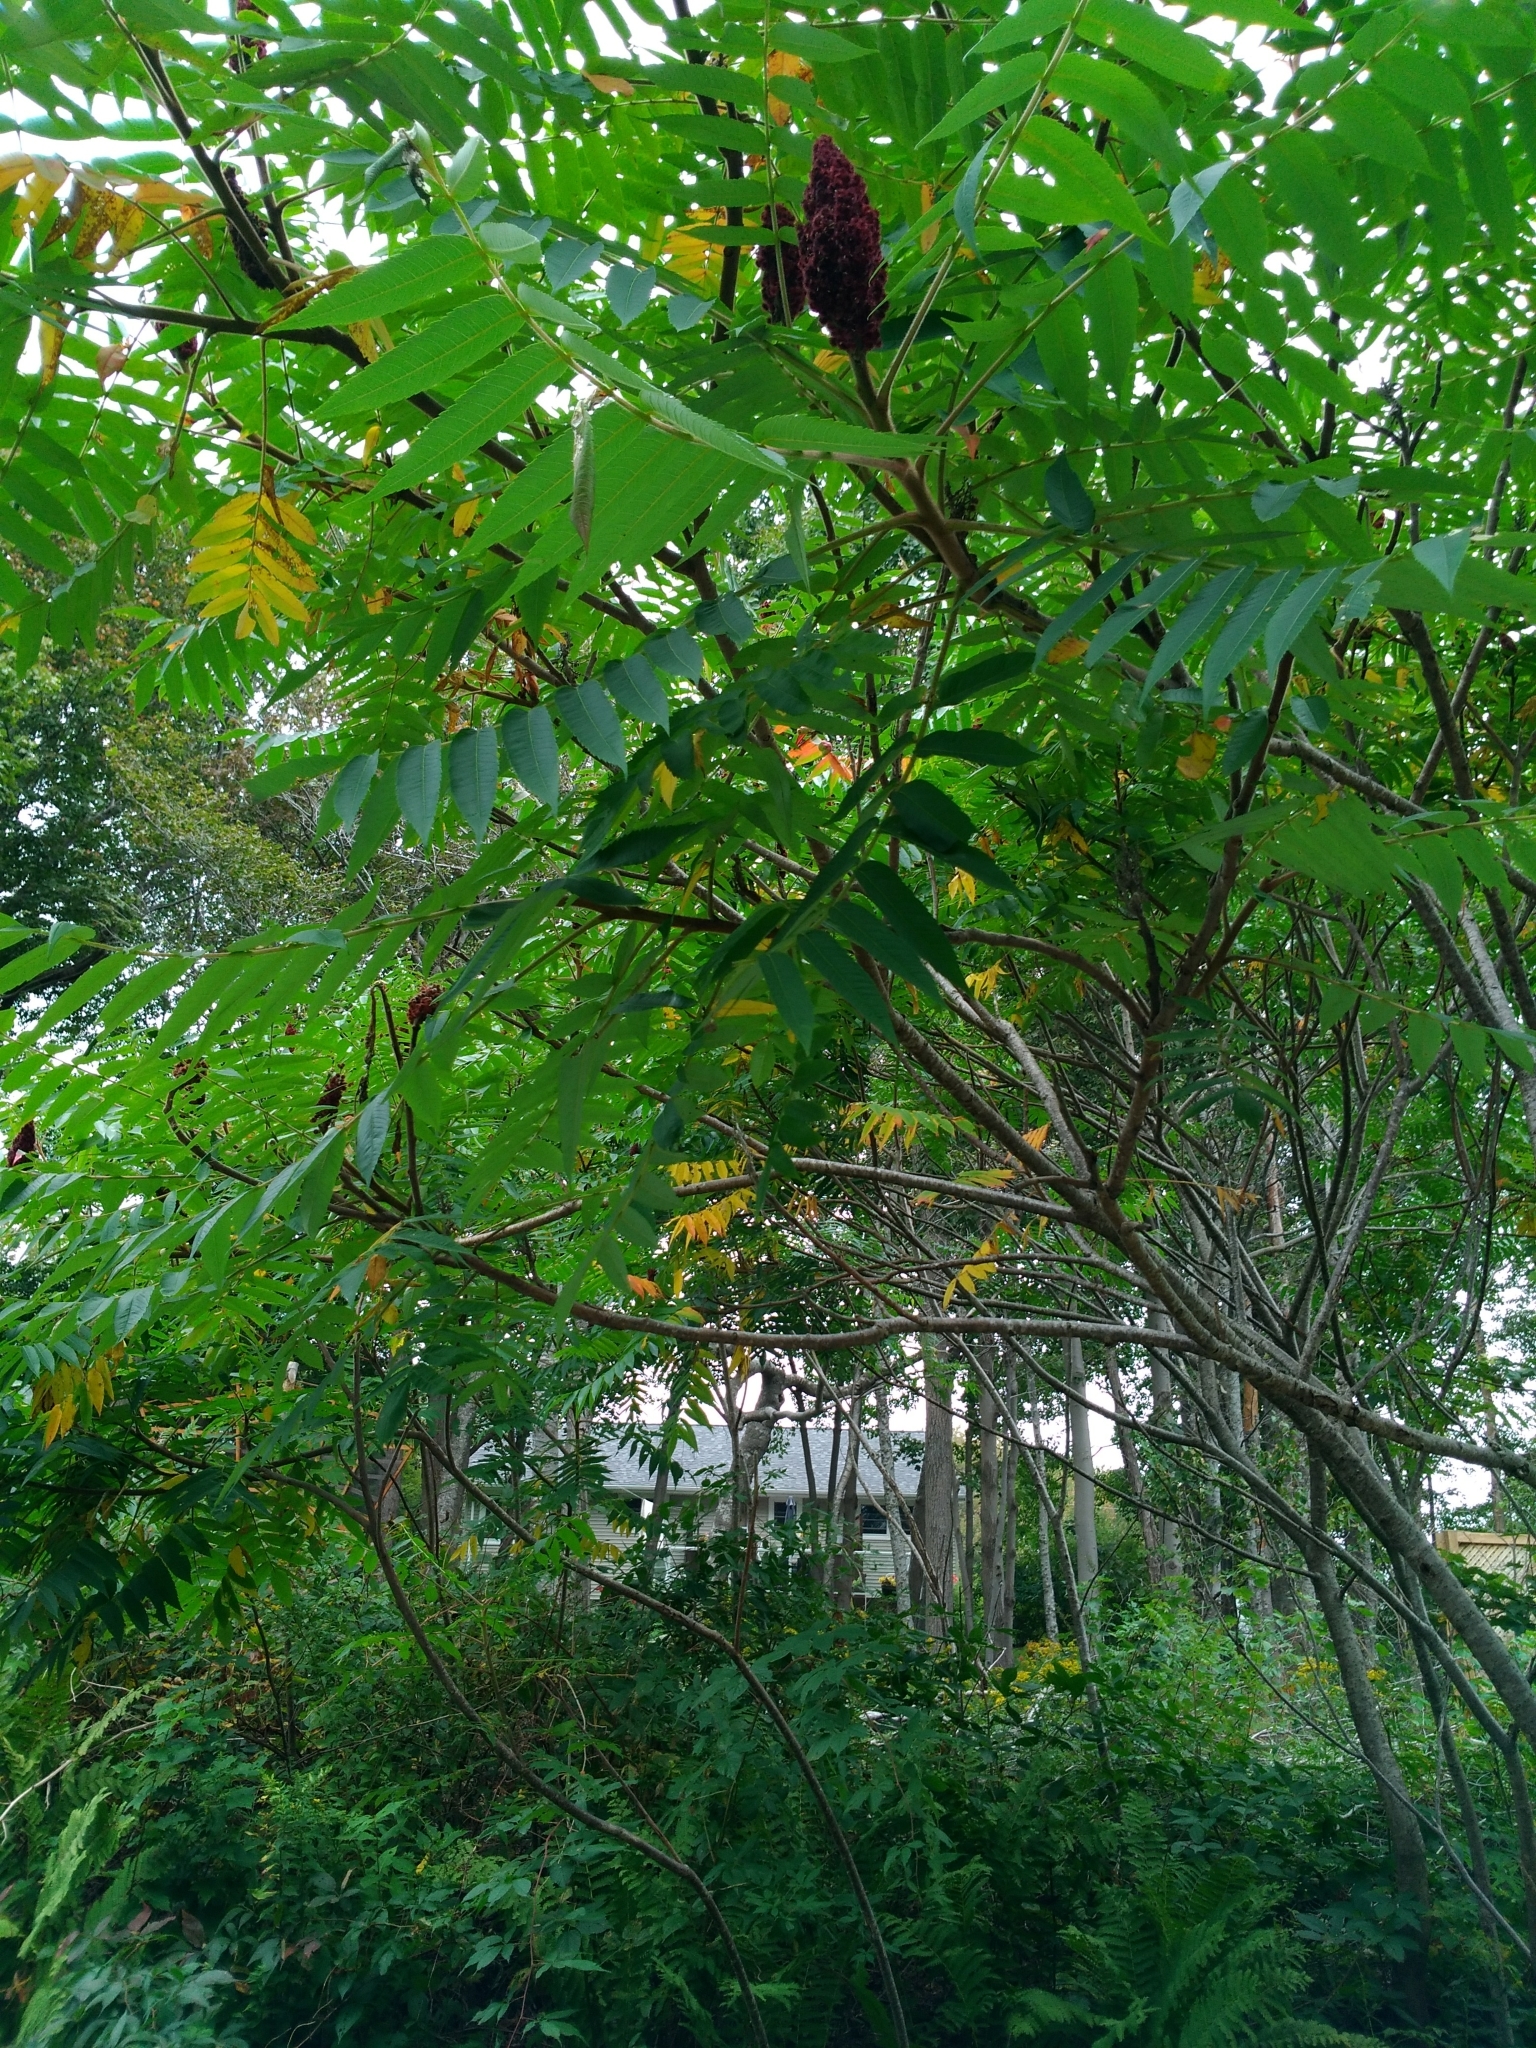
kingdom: Plantae
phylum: Tracheophyta
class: Magnoliopsida
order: Sapindales
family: Anacardiaceae
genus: Rhus
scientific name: Rhus typhina
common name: Staghorn sumac
